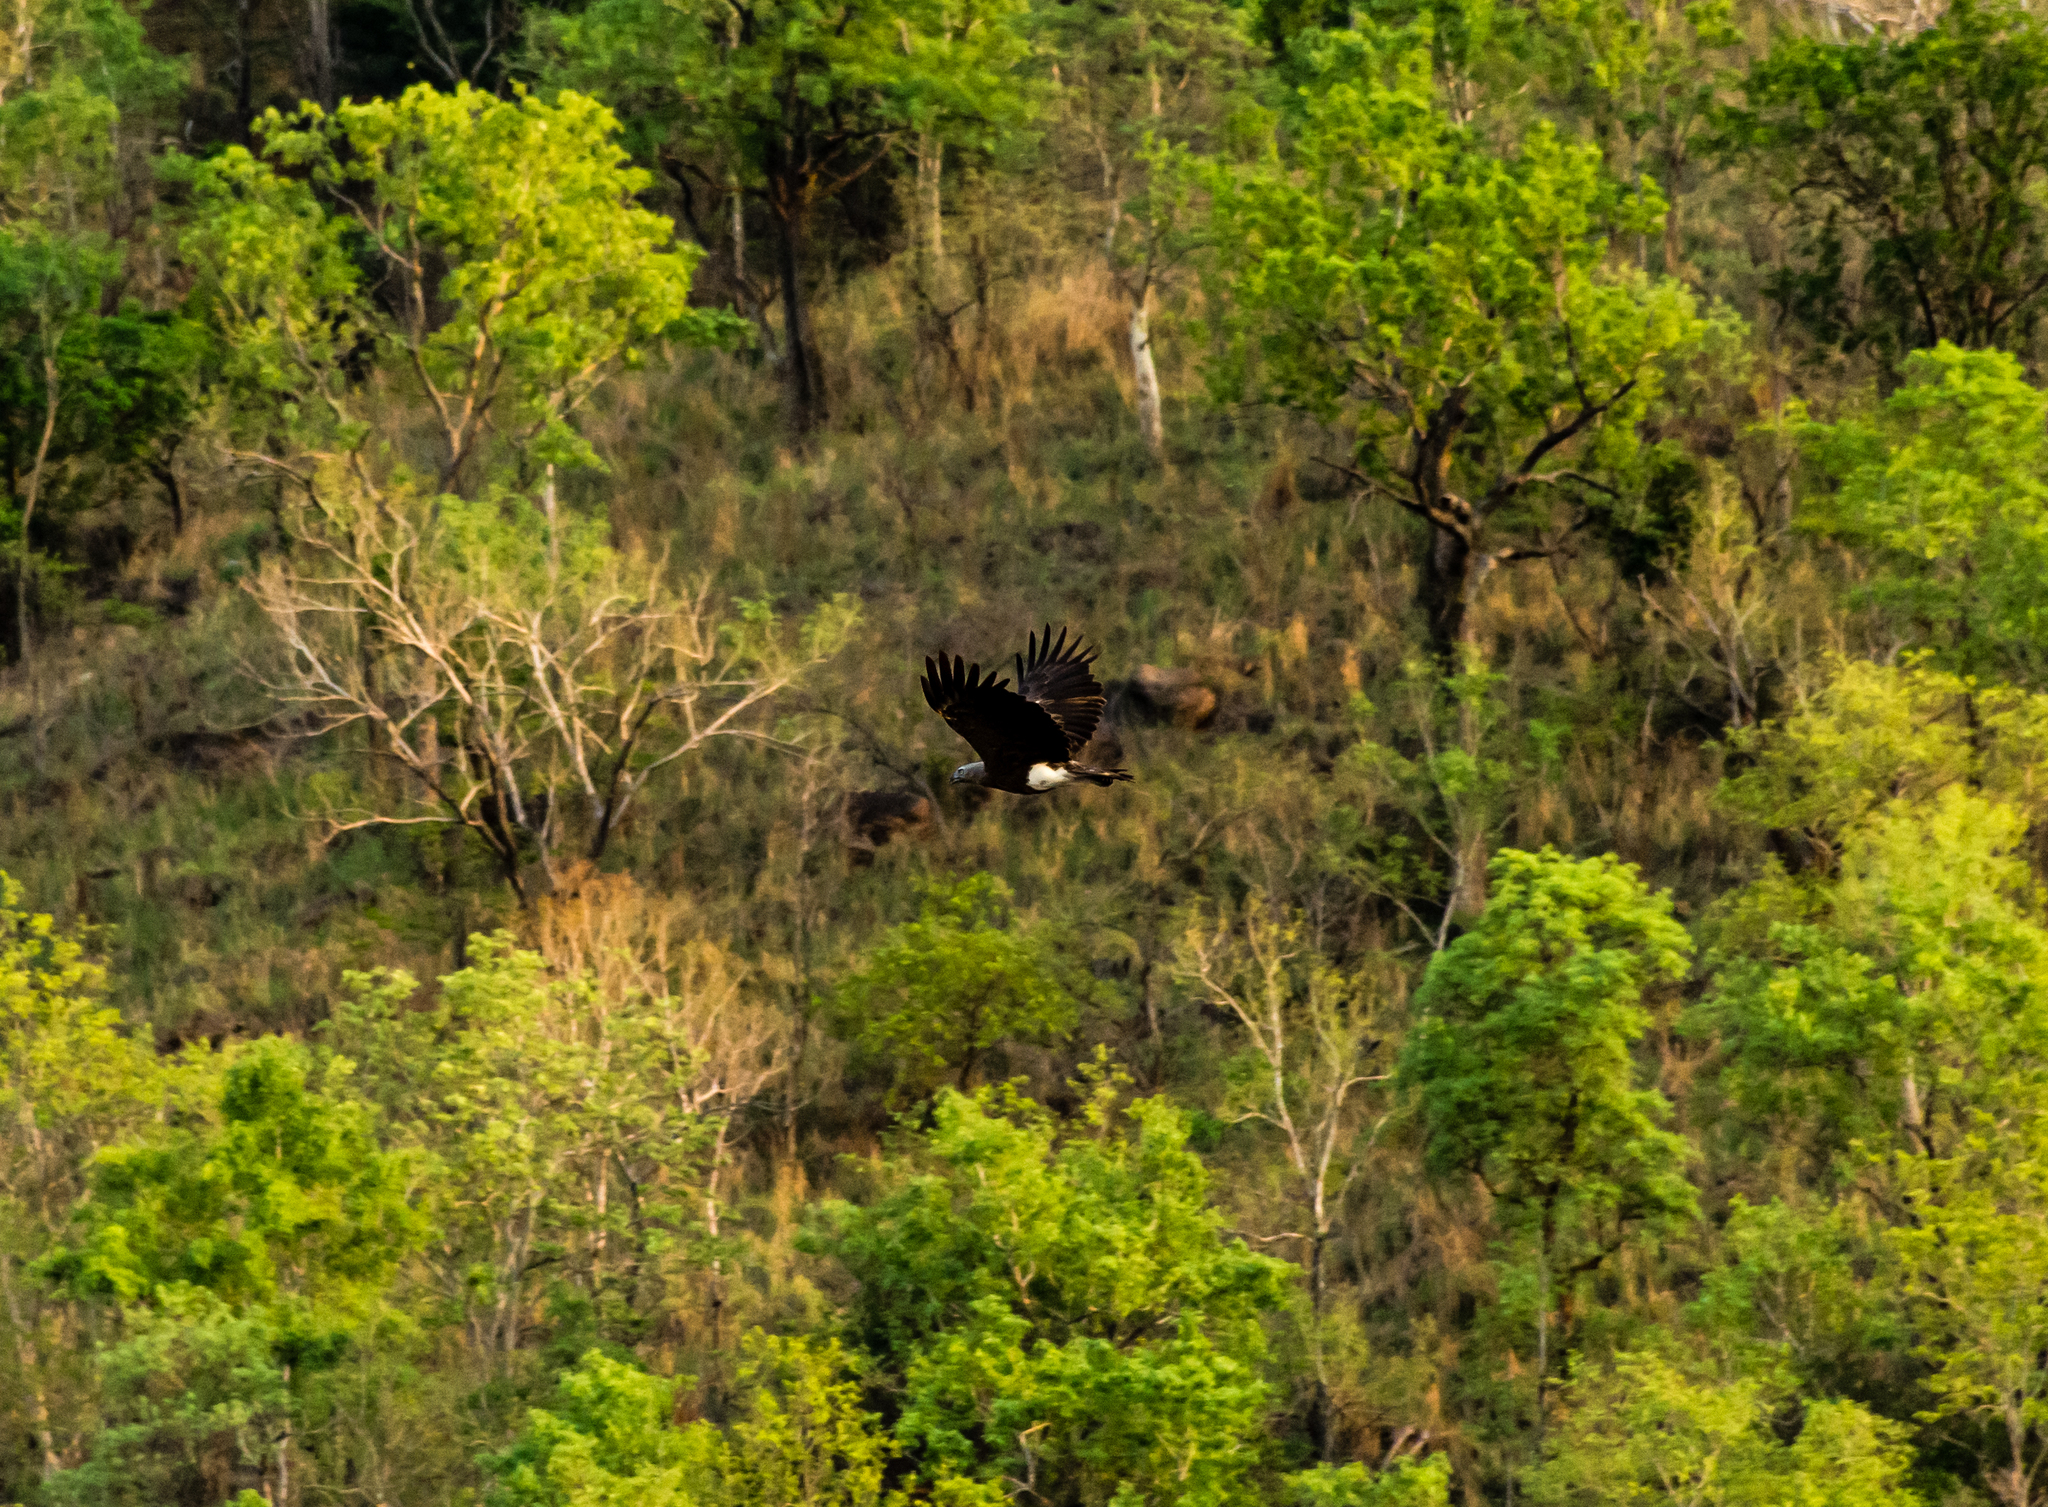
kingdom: Animalia
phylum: Chordata
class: Aves
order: Accipitriformes
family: Accipitridae
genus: Icthyophaga
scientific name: Icthyophaga humilis
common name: Lesser fish-eagle
